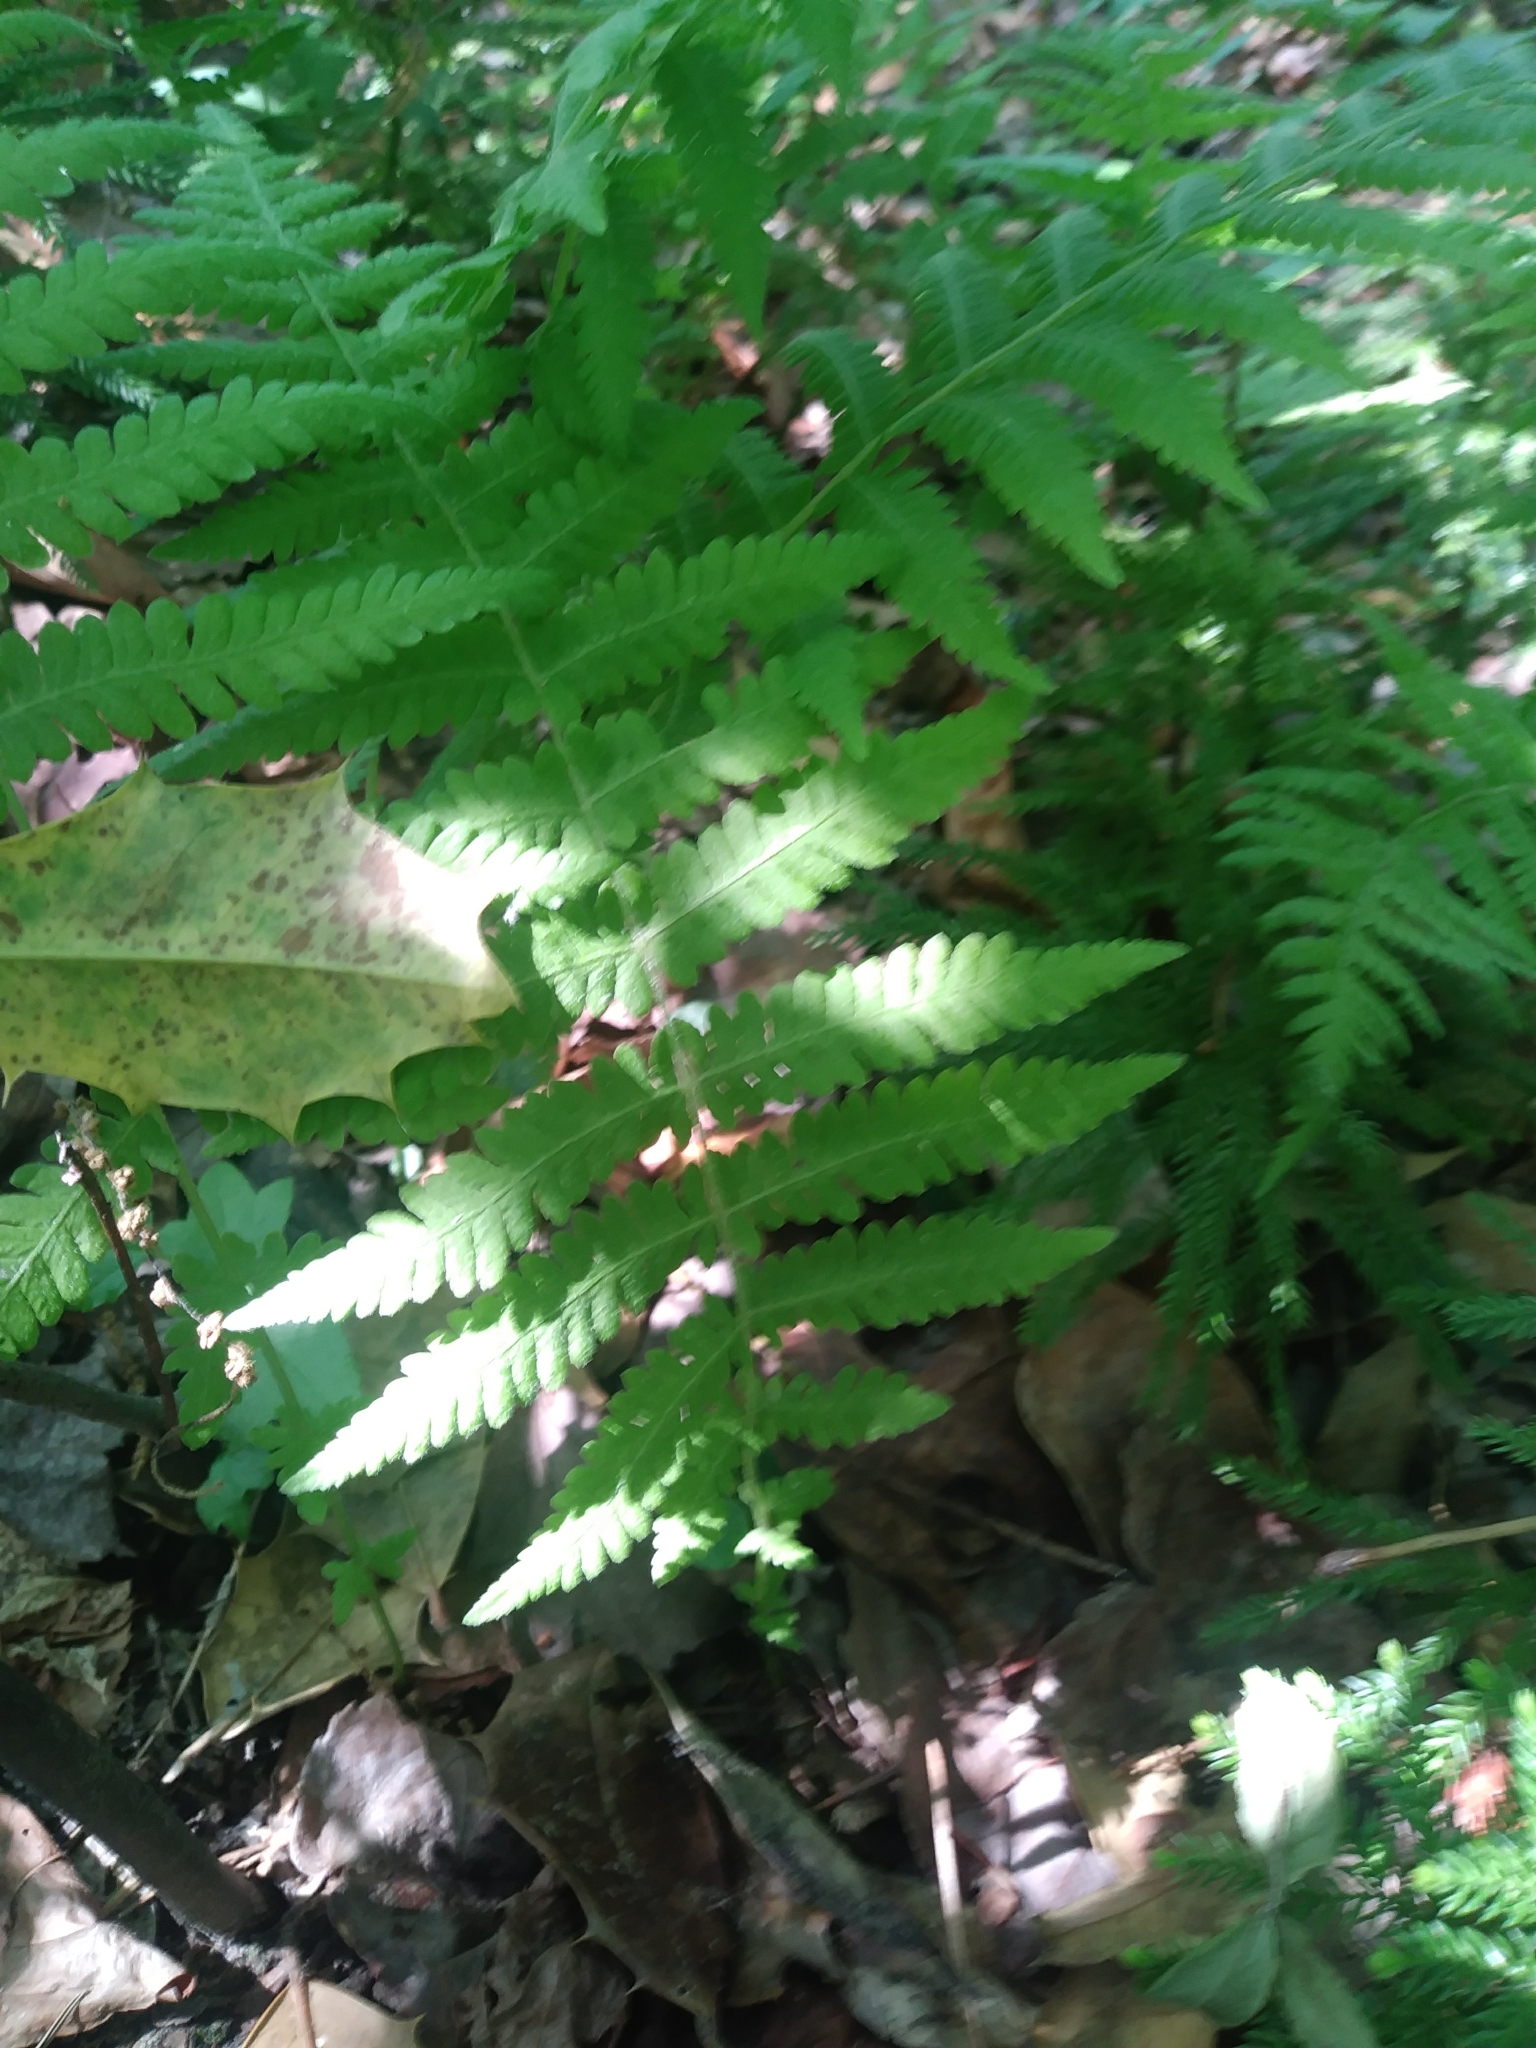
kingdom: Plantae
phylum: Tracheophyta
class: Polypodiopsida
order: Polypodiales
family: Thelypteridaceae
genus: Amauropelta
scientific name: Amauropelta noveboracensis
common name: New york fern
